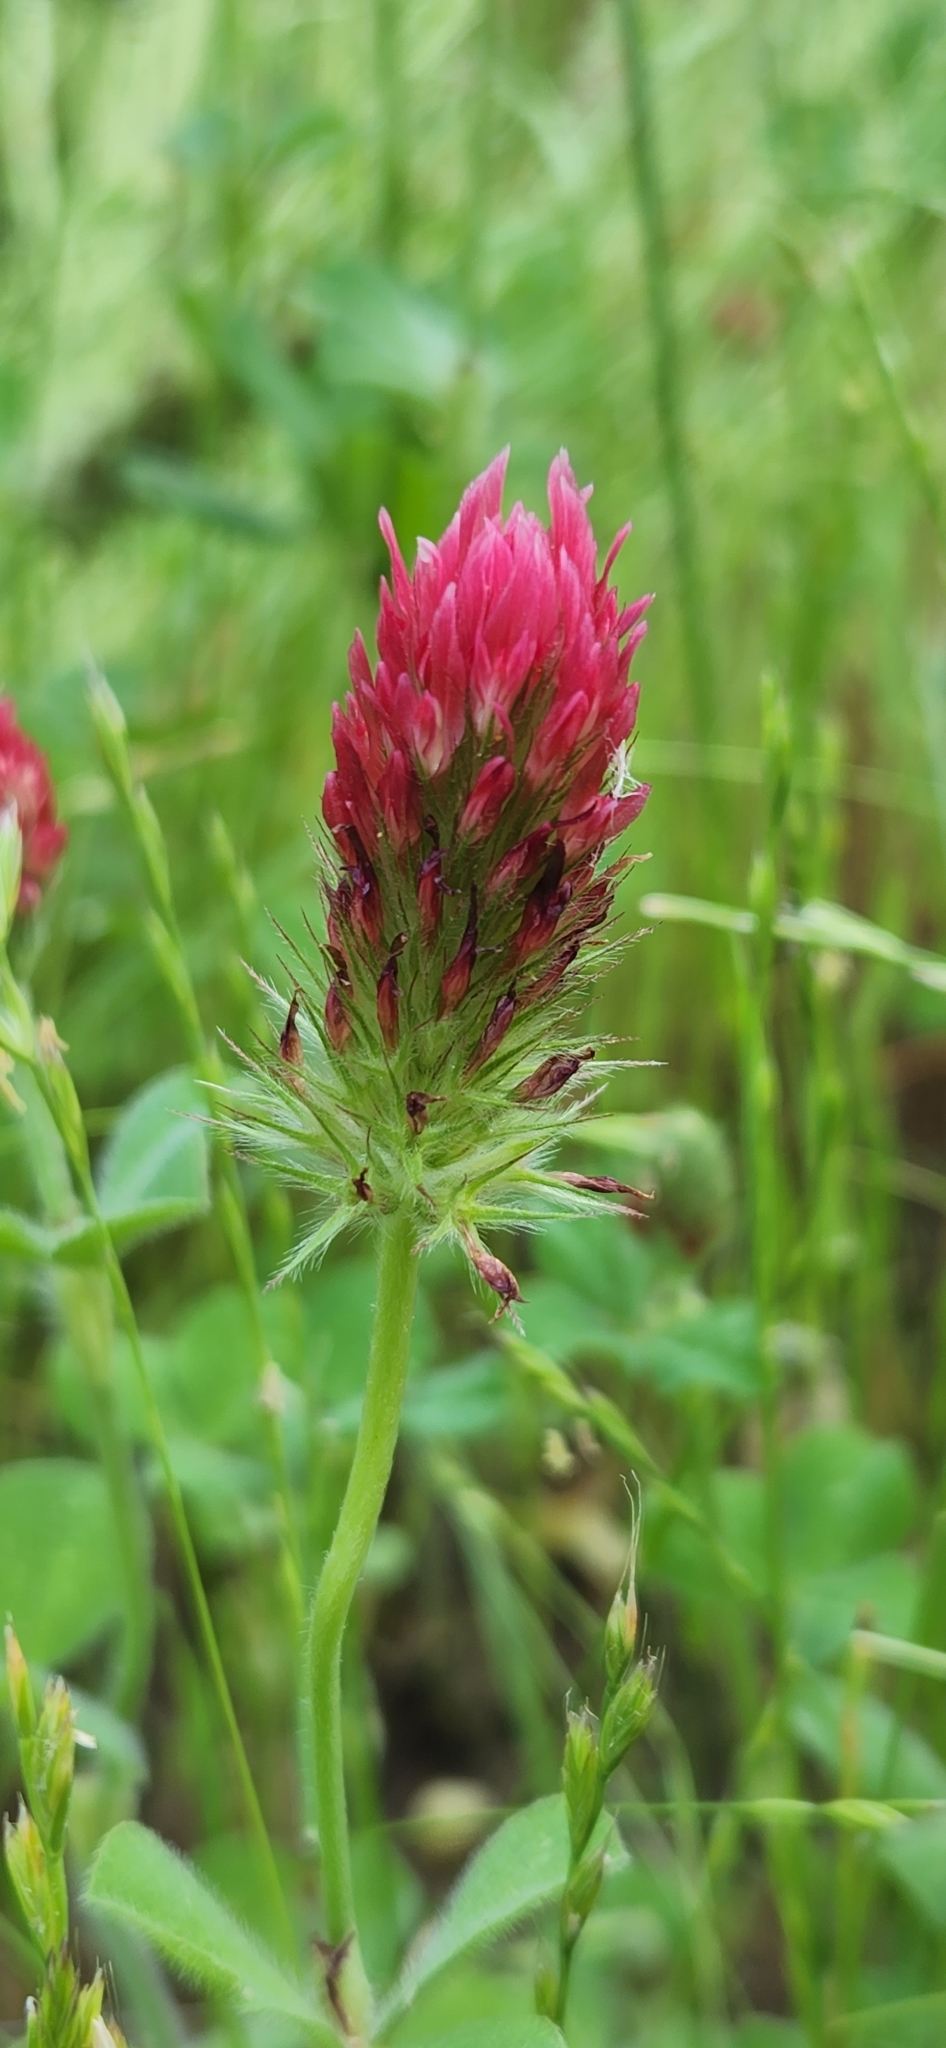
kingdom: Plantae
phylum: Tracheophyta
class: Magnoliopsida
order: Fabales
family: Fabaceae
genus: Trifolium
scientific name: Trifolium incarnatum
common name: Crimson clover
